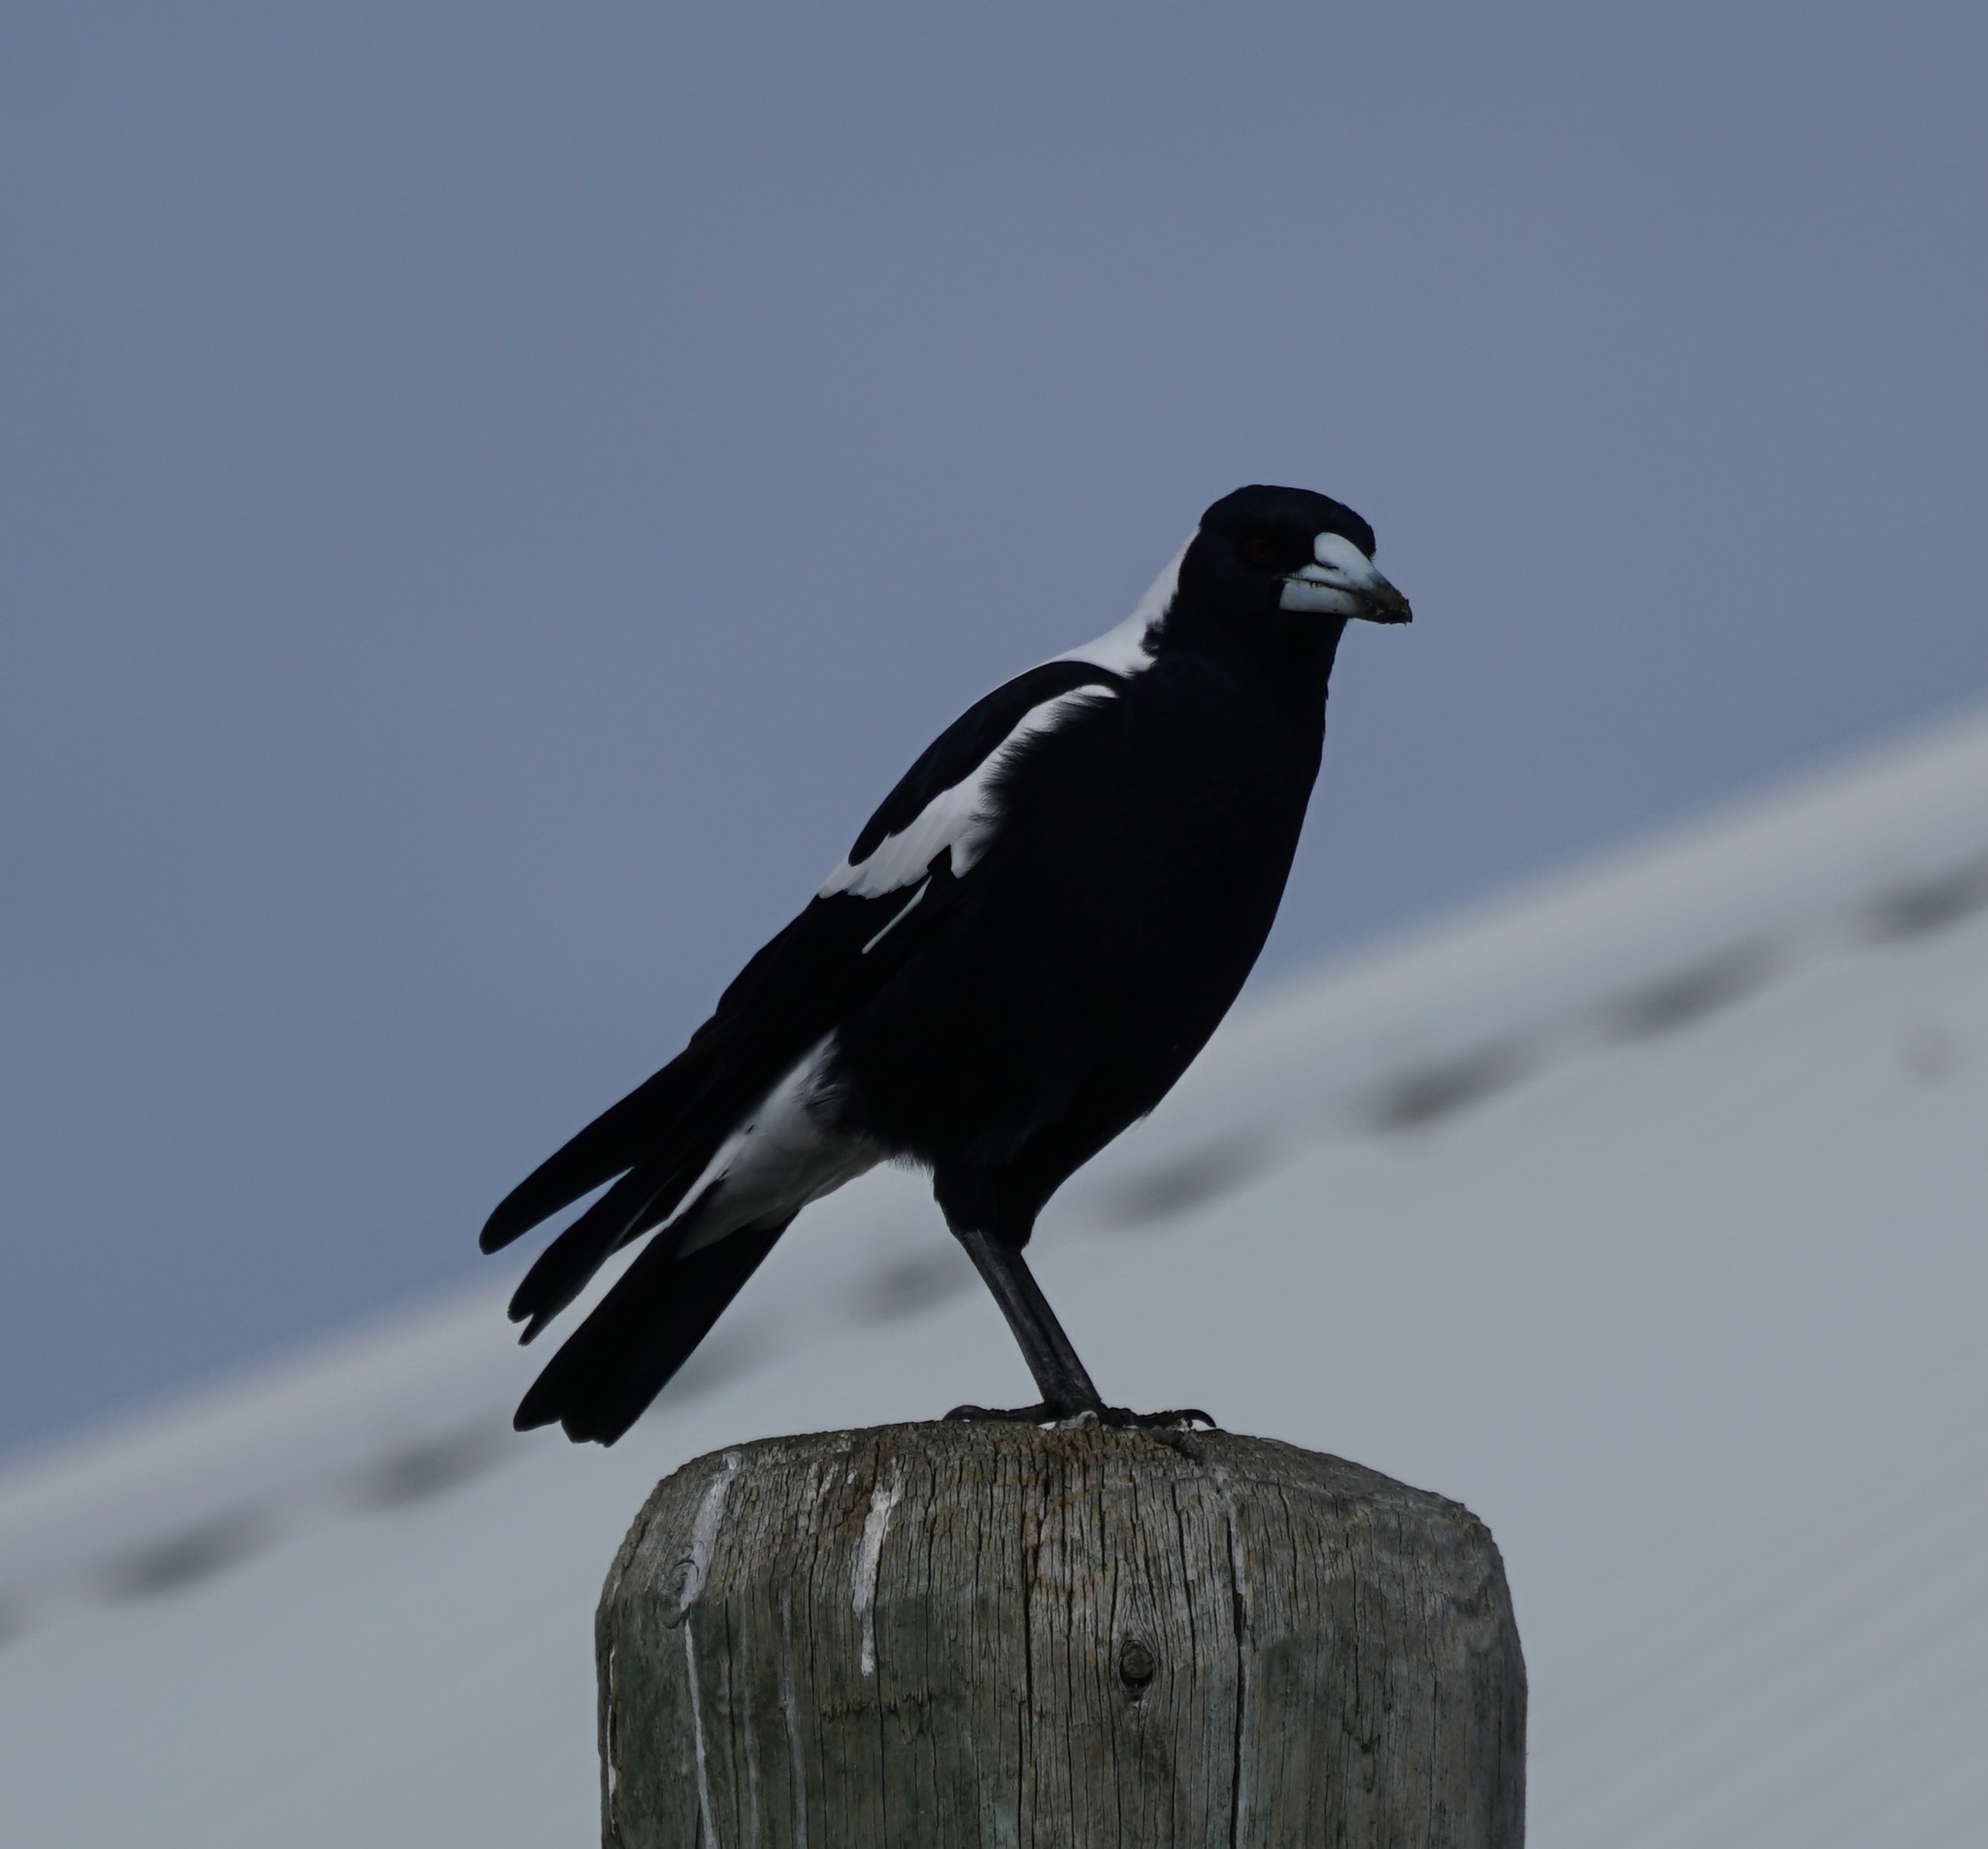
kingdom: Animalia
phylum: Chordata
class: Aves
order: Passeriformes
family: Cracticidae
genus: Gymnorhina
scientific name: Gymnorhina tibicen
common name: Australian magpie
